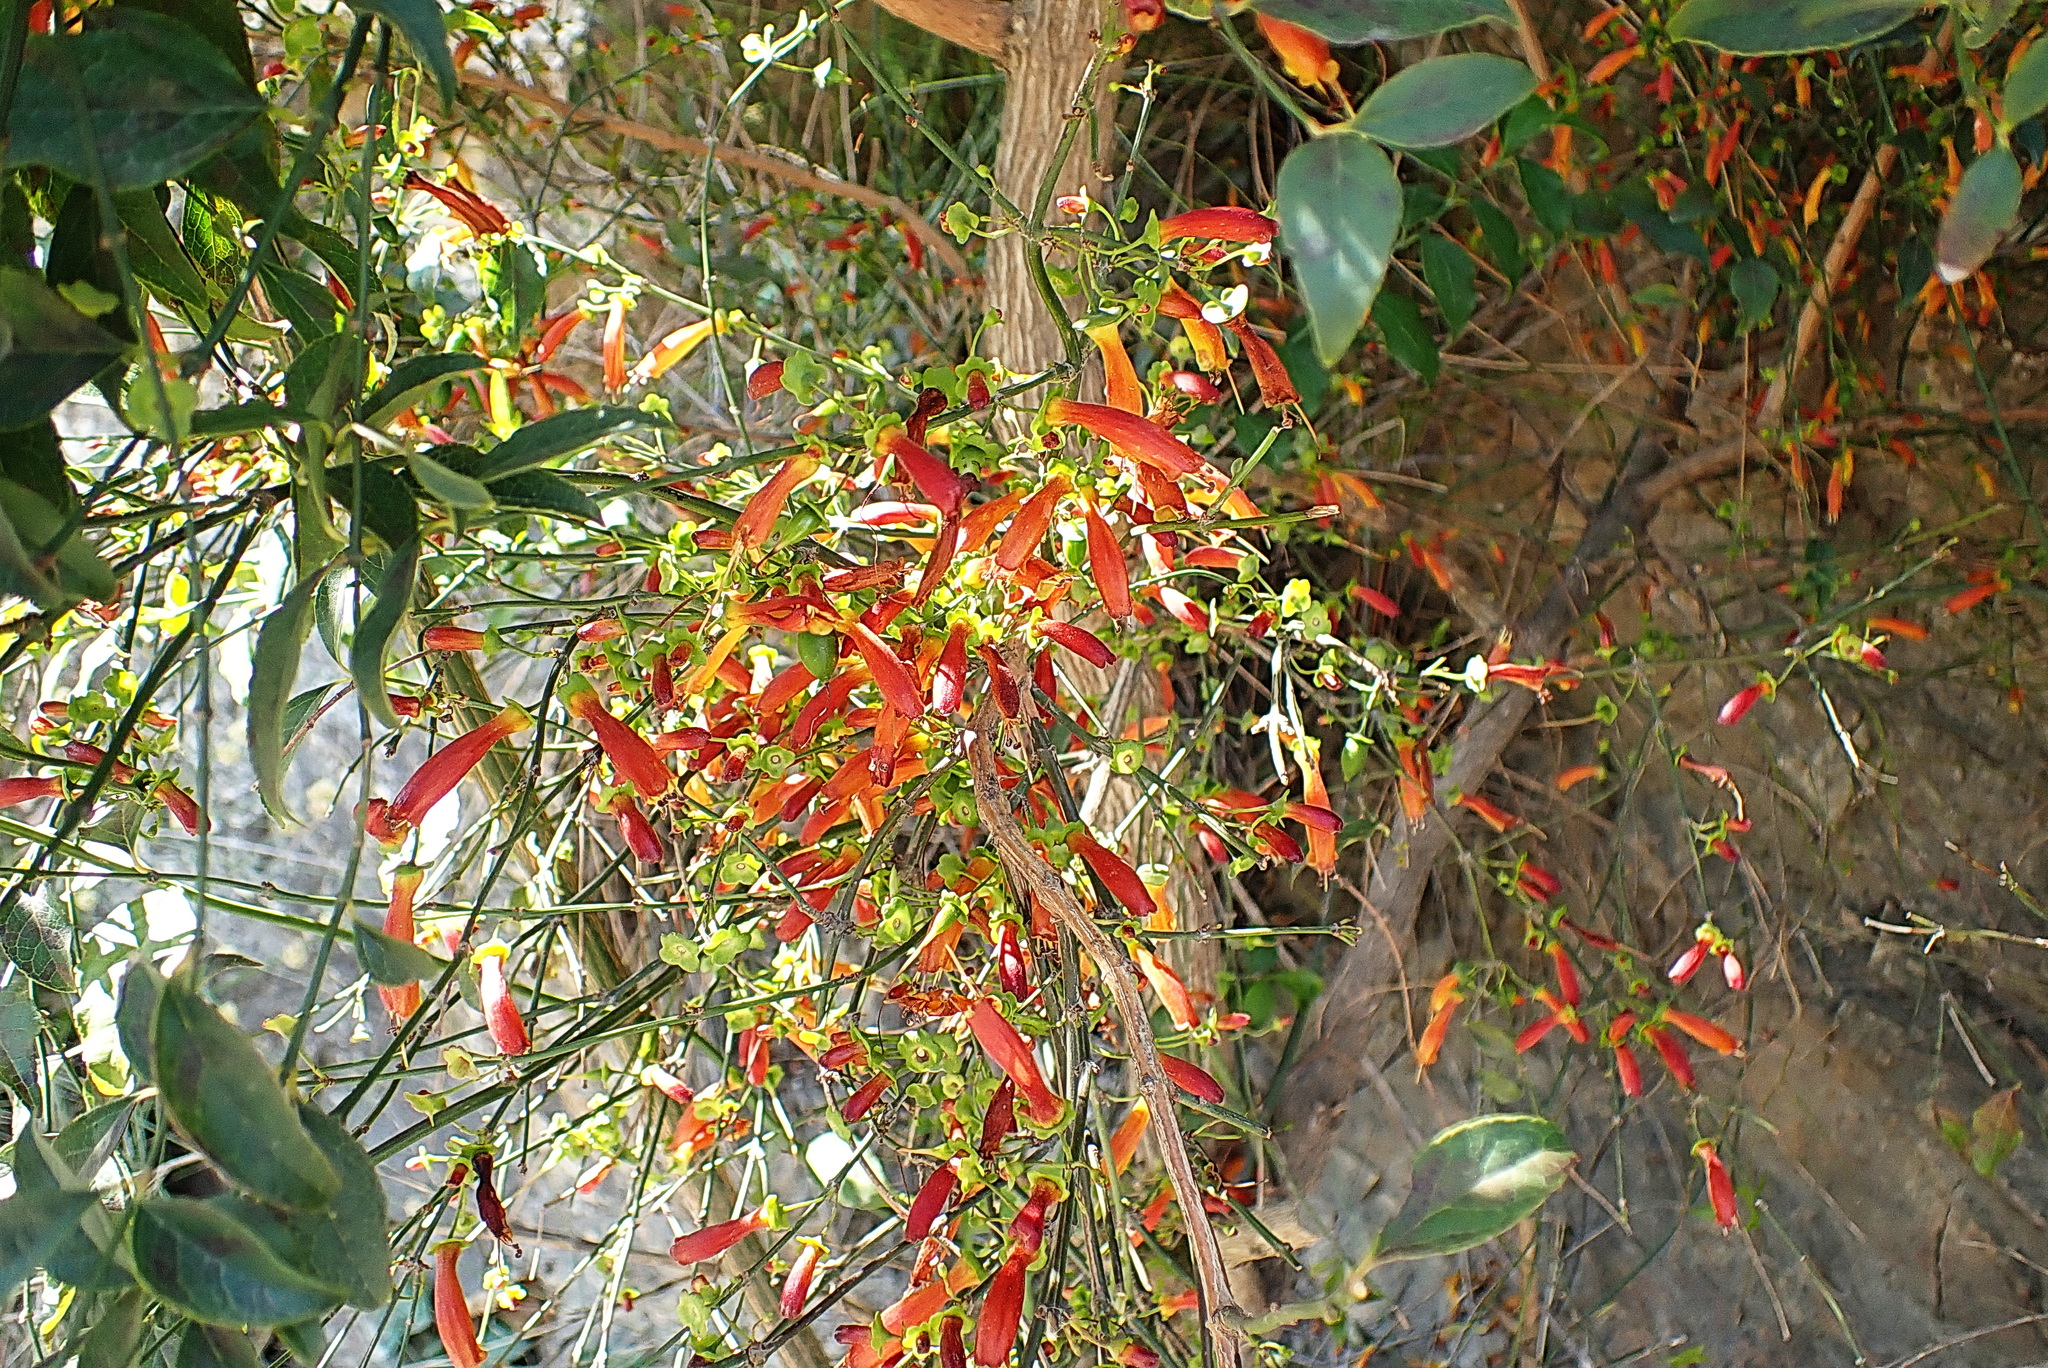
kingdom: Plantae
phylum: Tracheophyta
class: Magnoliopsida
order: Lamiales
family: Stilbaceae
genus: Halleria
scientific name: Halleria lucida
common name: Tree fuschia
